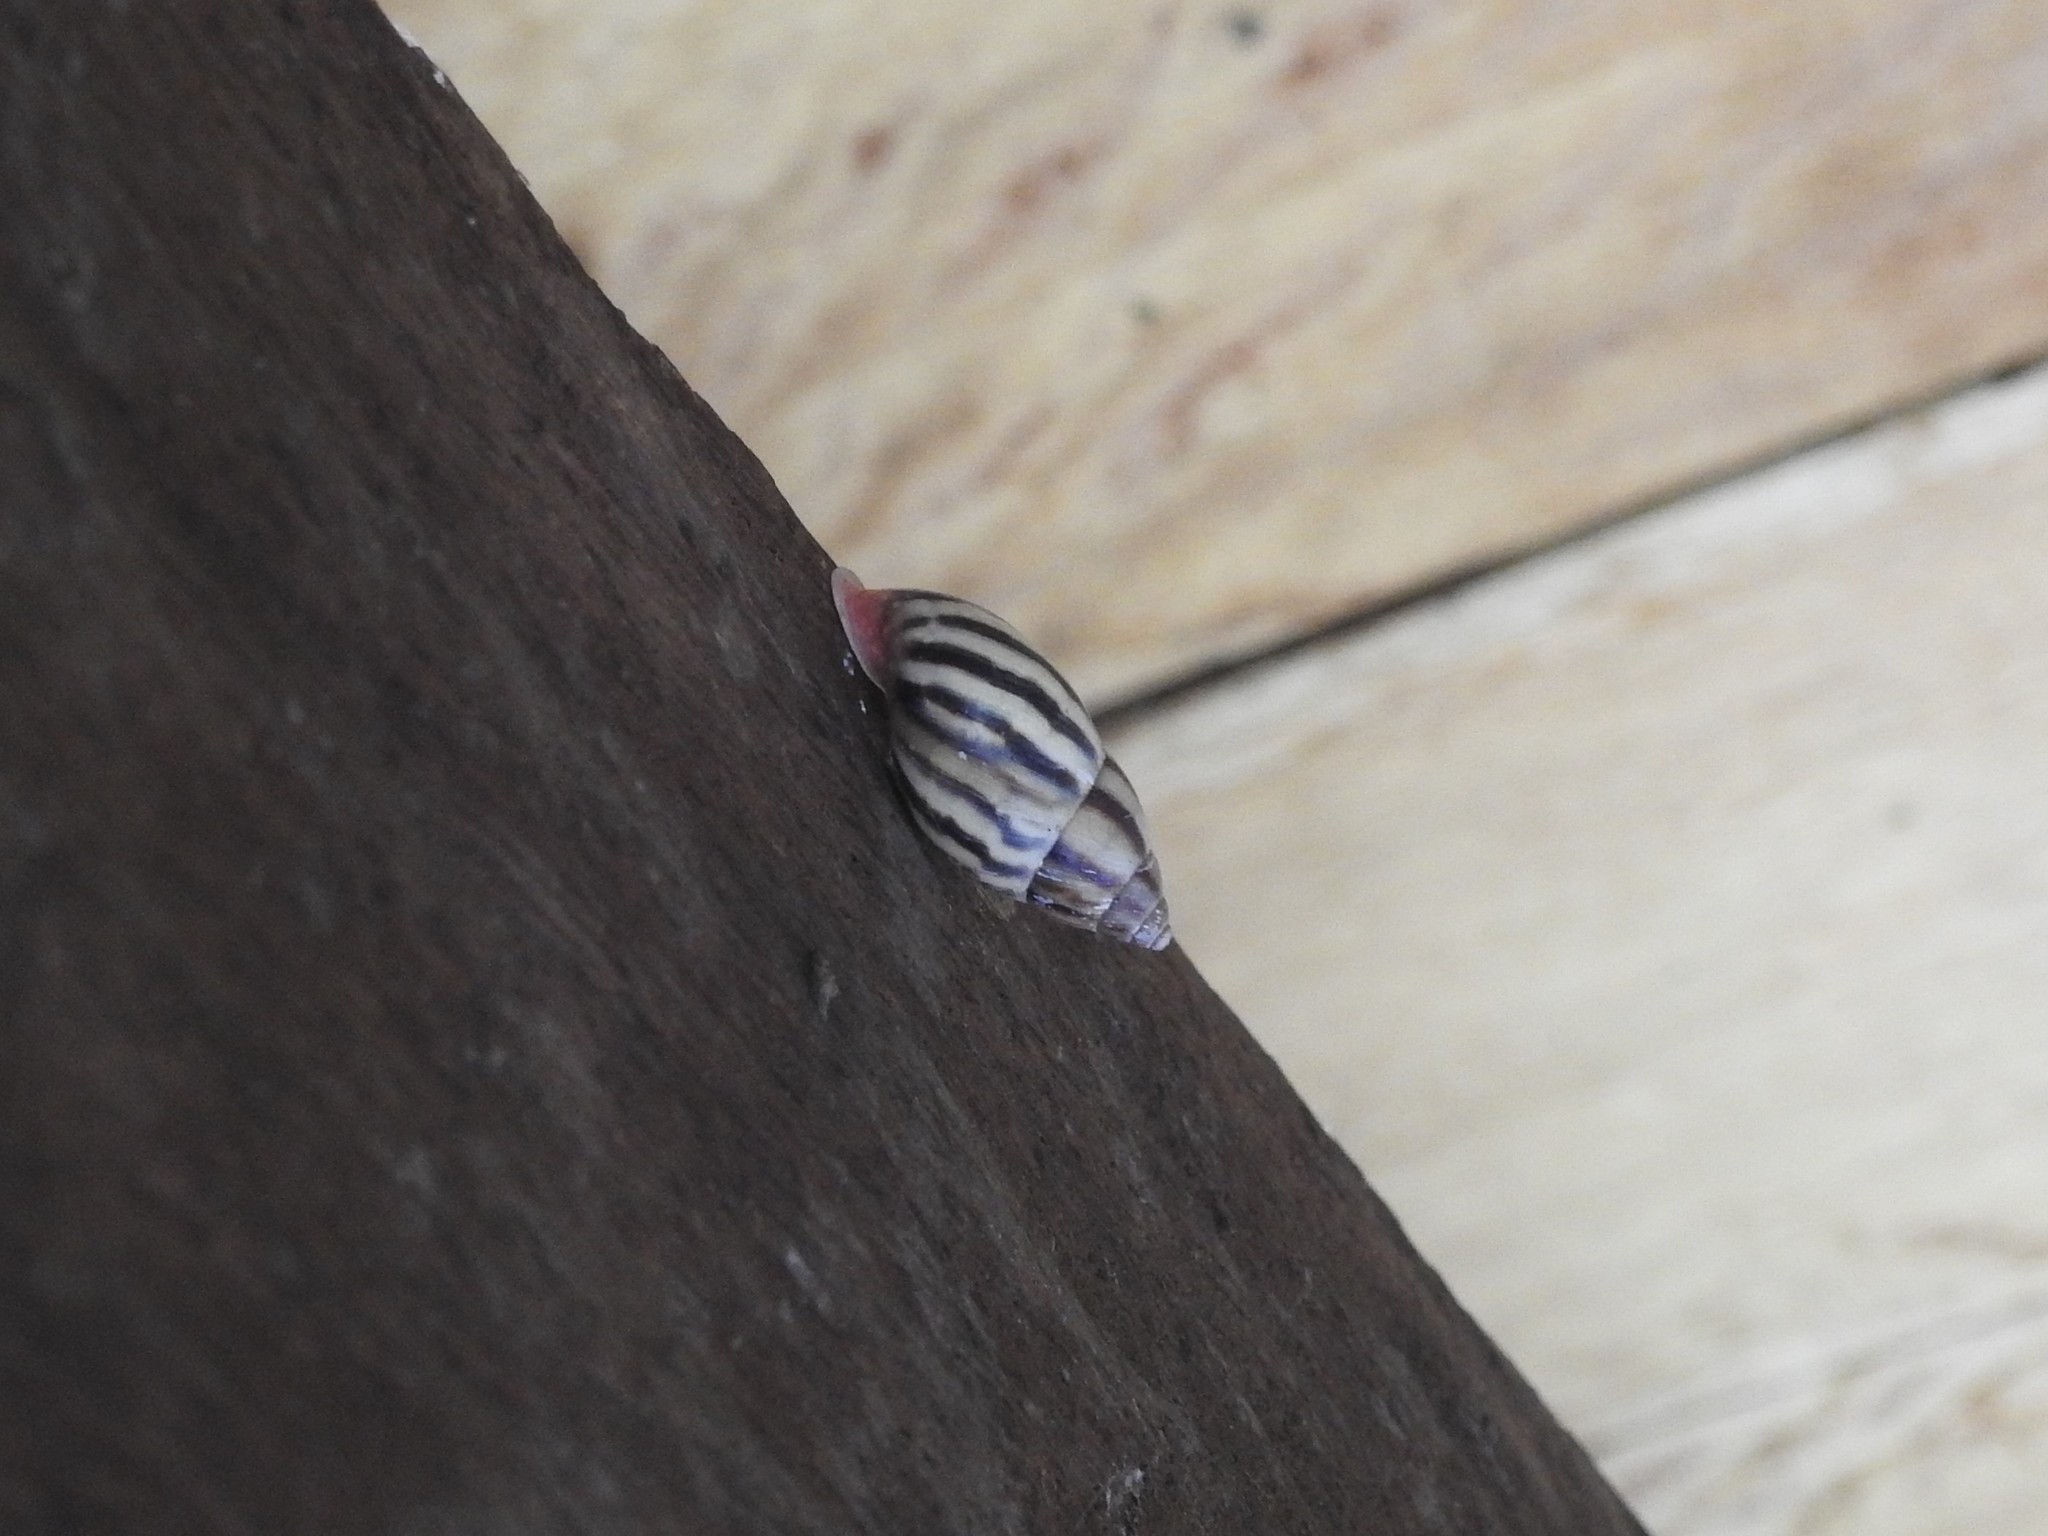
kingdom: Animalia
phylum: Mollusca
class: Gastropoda
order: Stylommatophora
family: Bulimulidae
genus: Drymaeus
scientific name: Drymaeus aequatorianus
